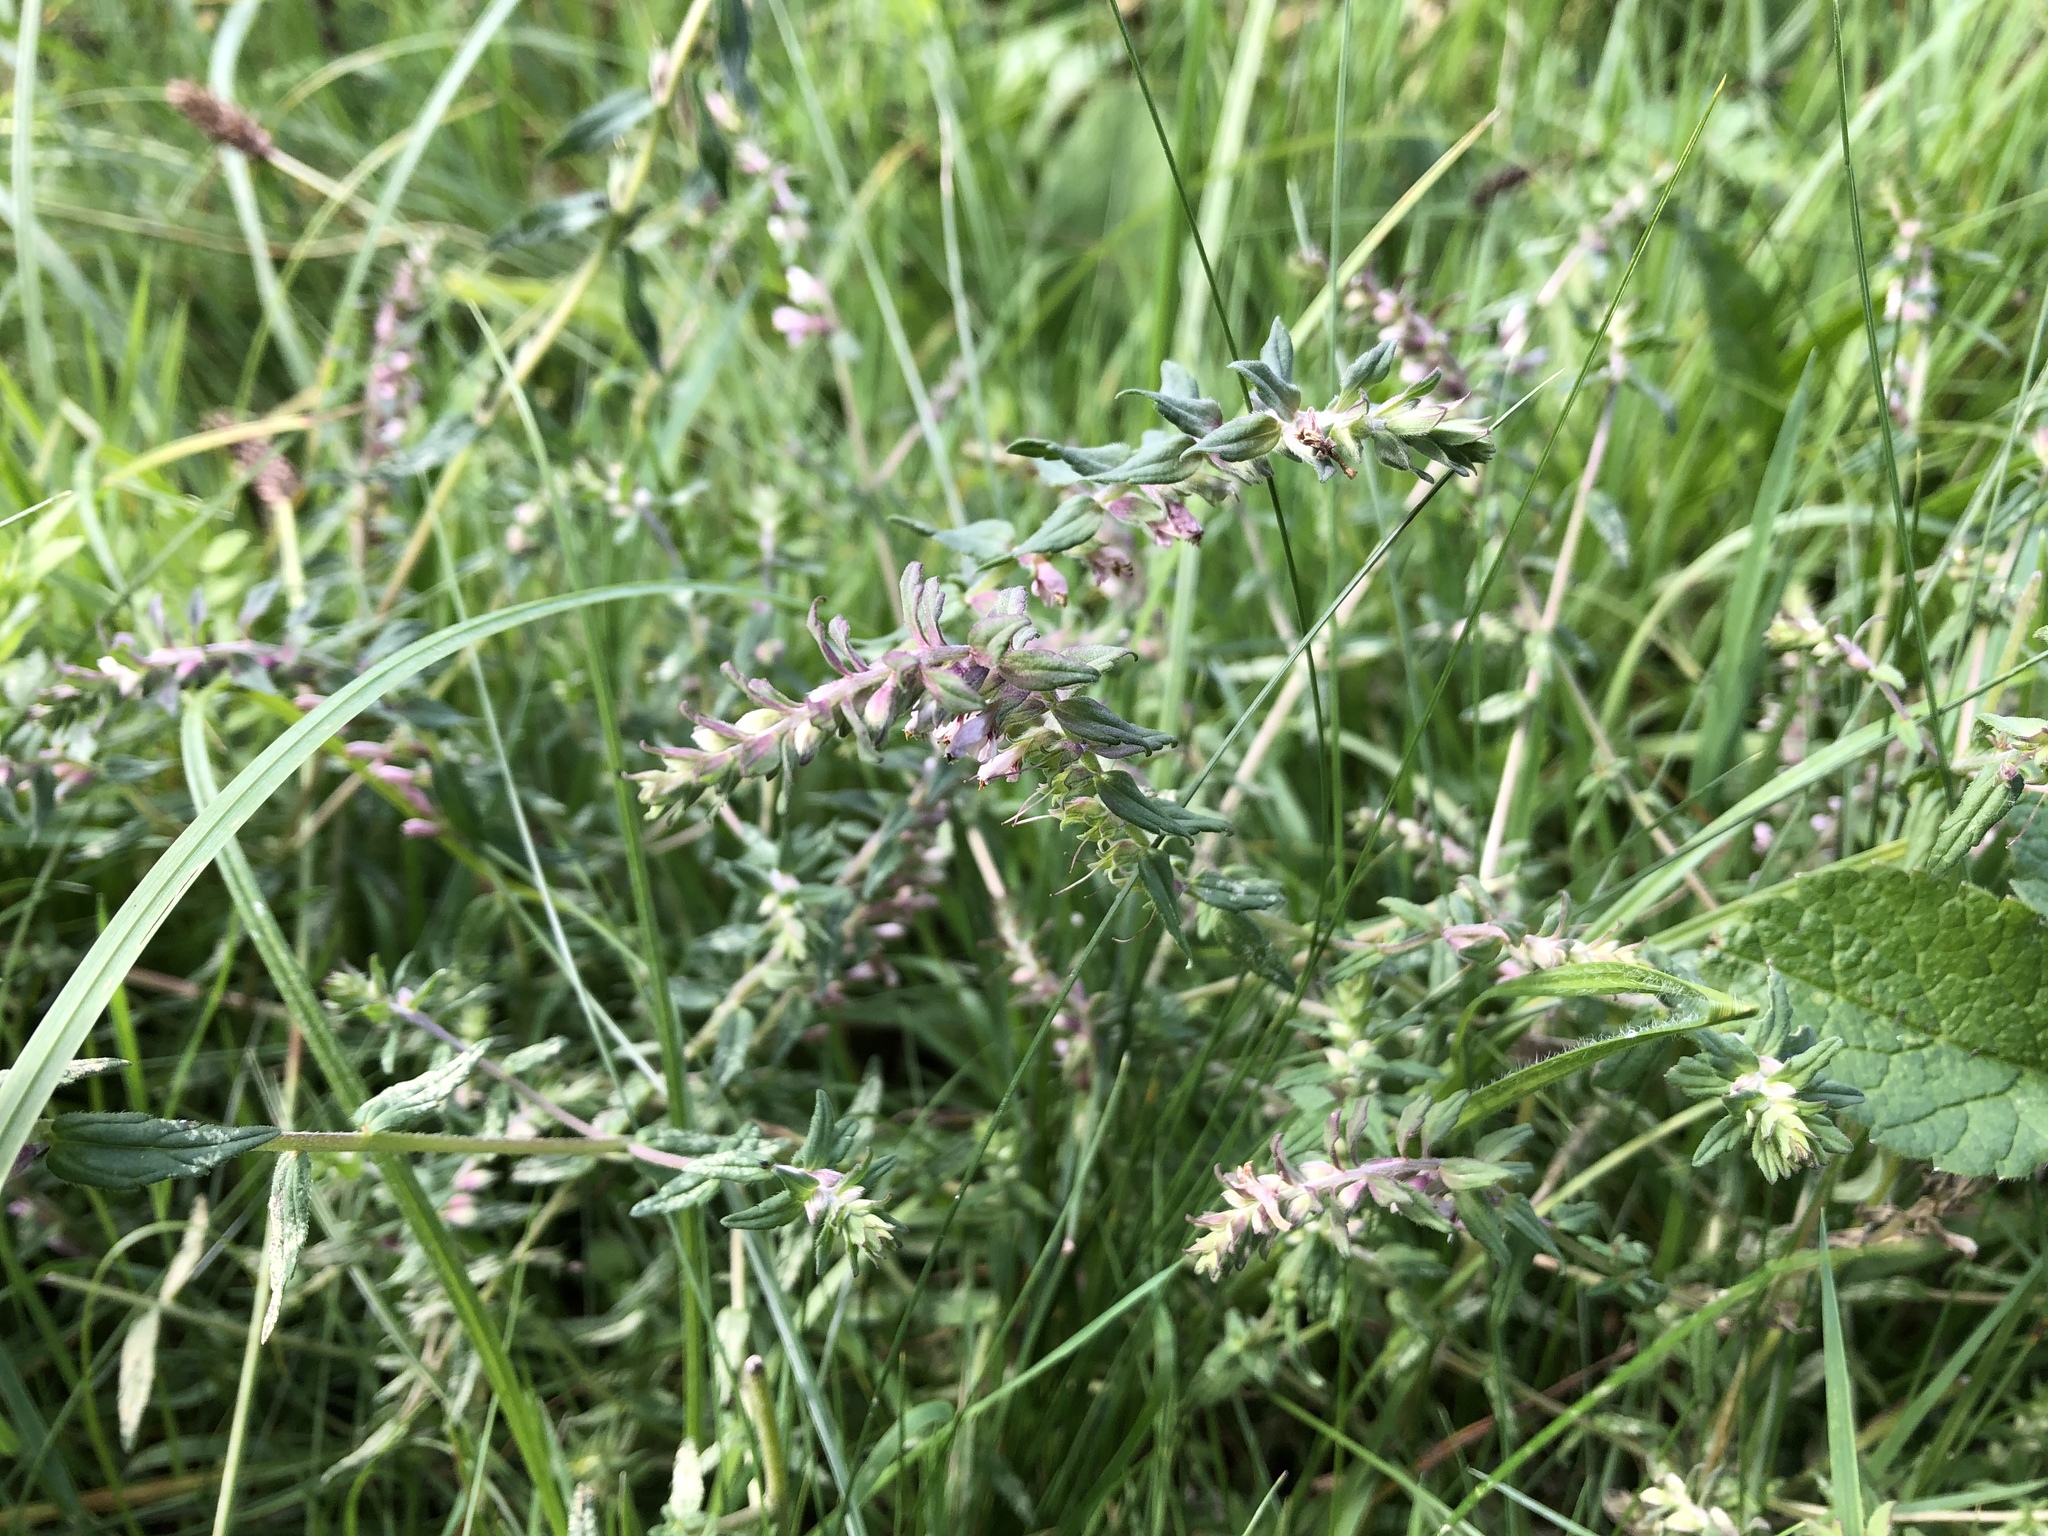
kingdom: Plantae
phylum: Tracheophyta
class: Magnoliopsida
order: Lamiales
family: Orobanchaceae
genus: Odontites
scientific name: Odontites vulgaris
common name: Broomrape
